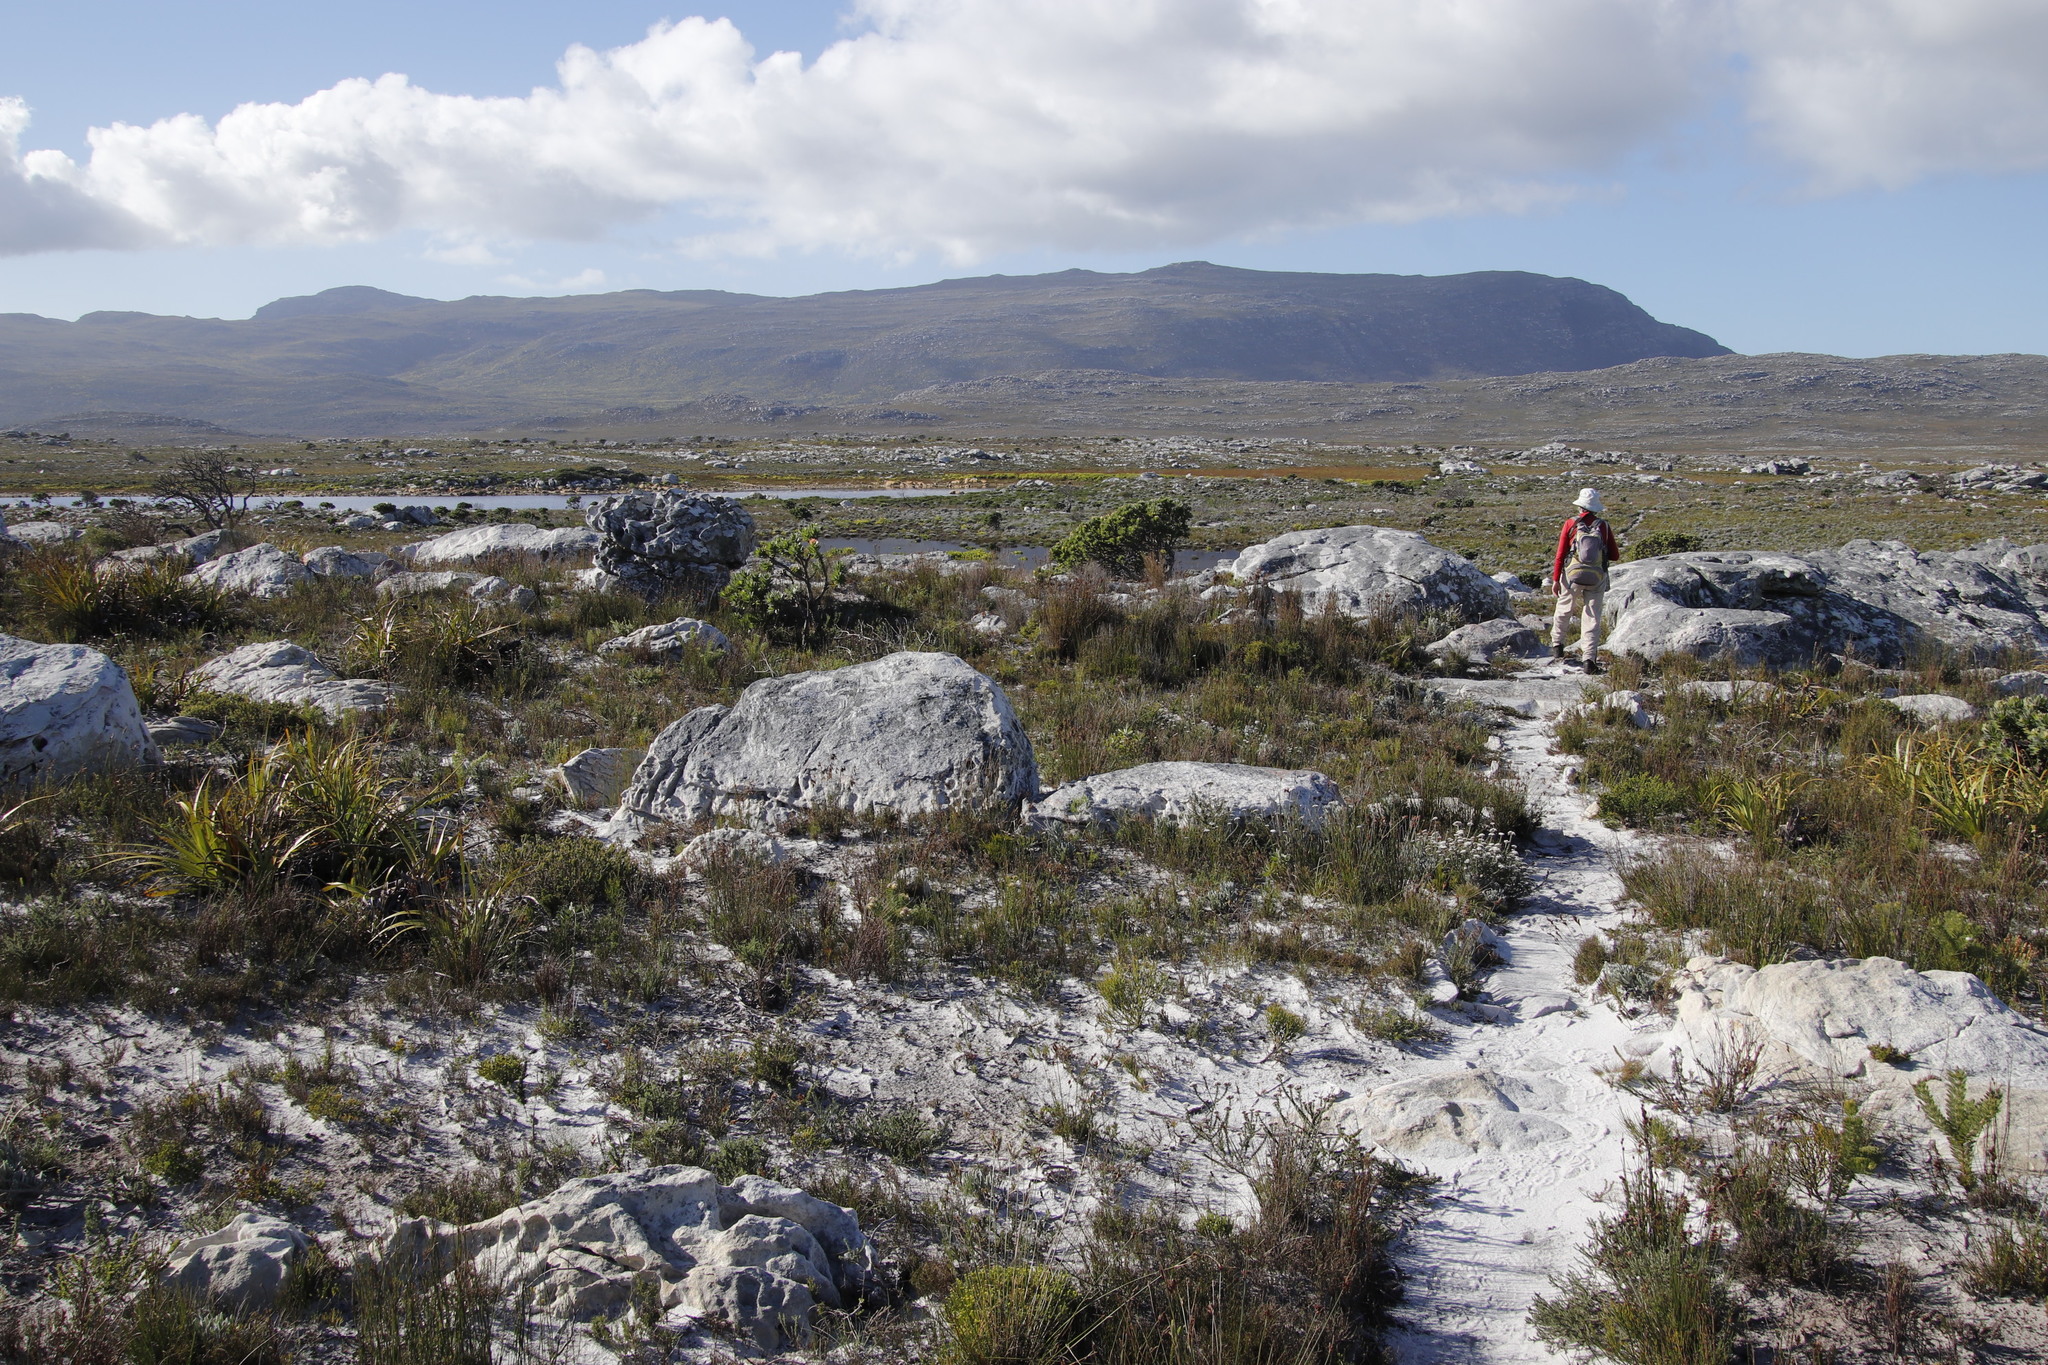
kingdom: Plantae
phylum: Tracheophyta
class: Magnoliopsida
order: Proteales
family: Proteaceae
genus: Mimetes
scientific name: Mimetes fimbriifolius
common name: Fringed bottlebrush
